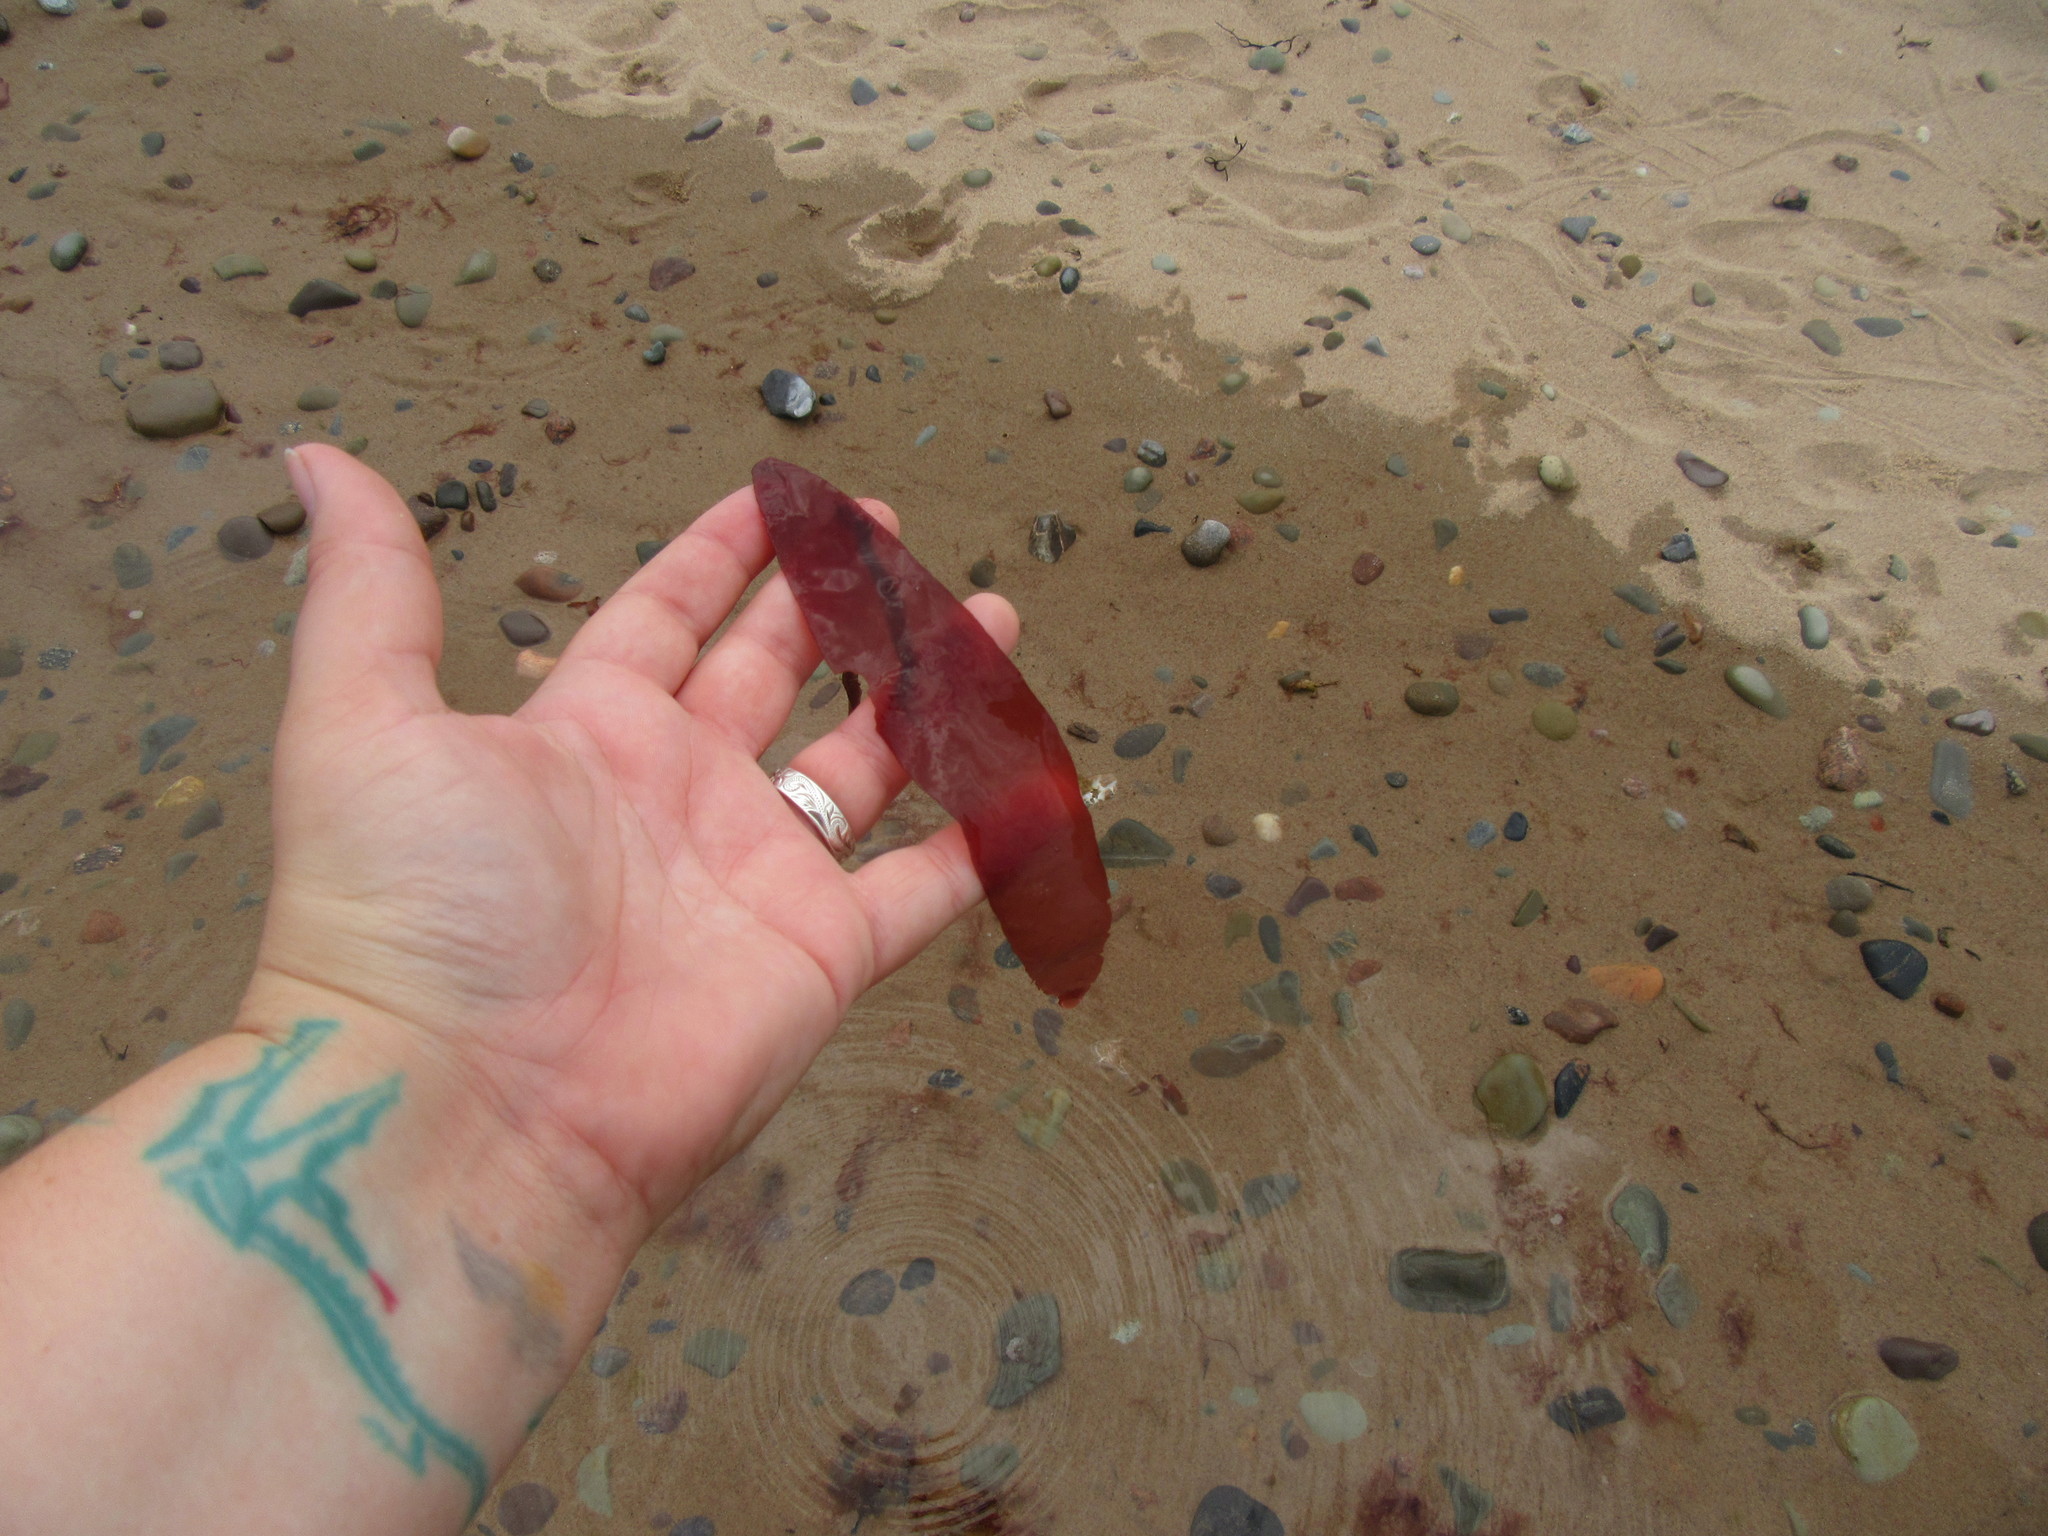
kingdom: Plantae
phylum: Rhodophyta
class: Florideophyceae
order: Palmariales
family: Palmariaceae
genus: Palmaria
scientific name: Palmaria palmata
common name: Dulse
